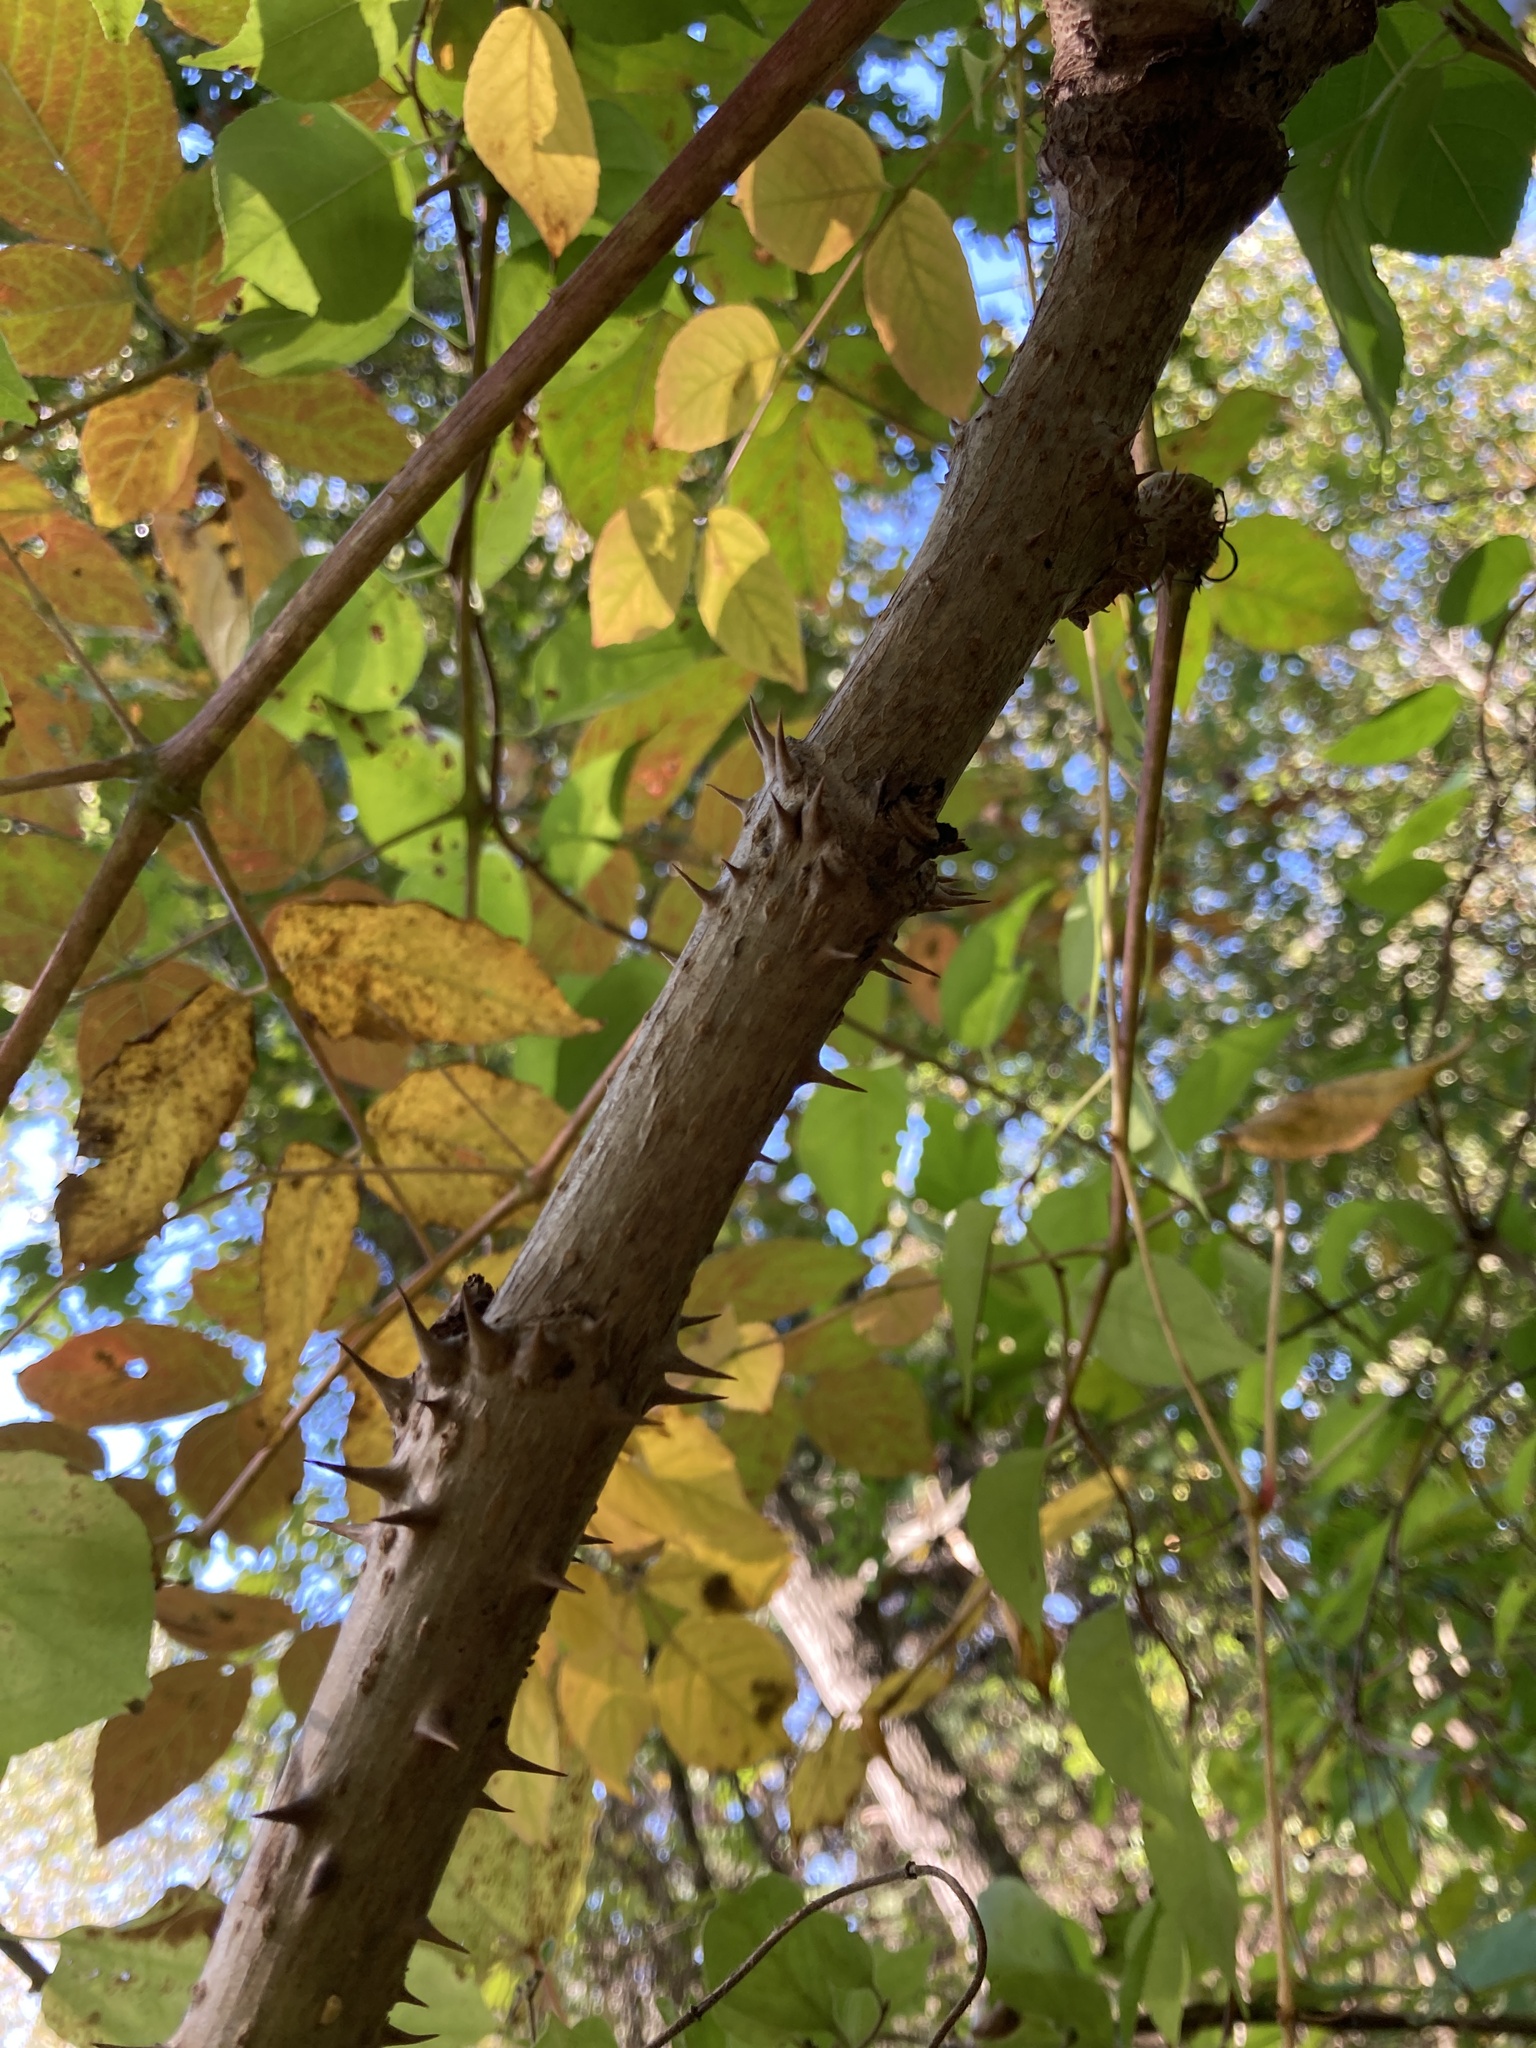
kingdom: Plantae
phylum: Tracheophyta
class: Magnoliopsida
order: Apiales
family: Araliaceae
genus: Aralia
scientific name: Aralia spinosa
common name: Hercules'-club
